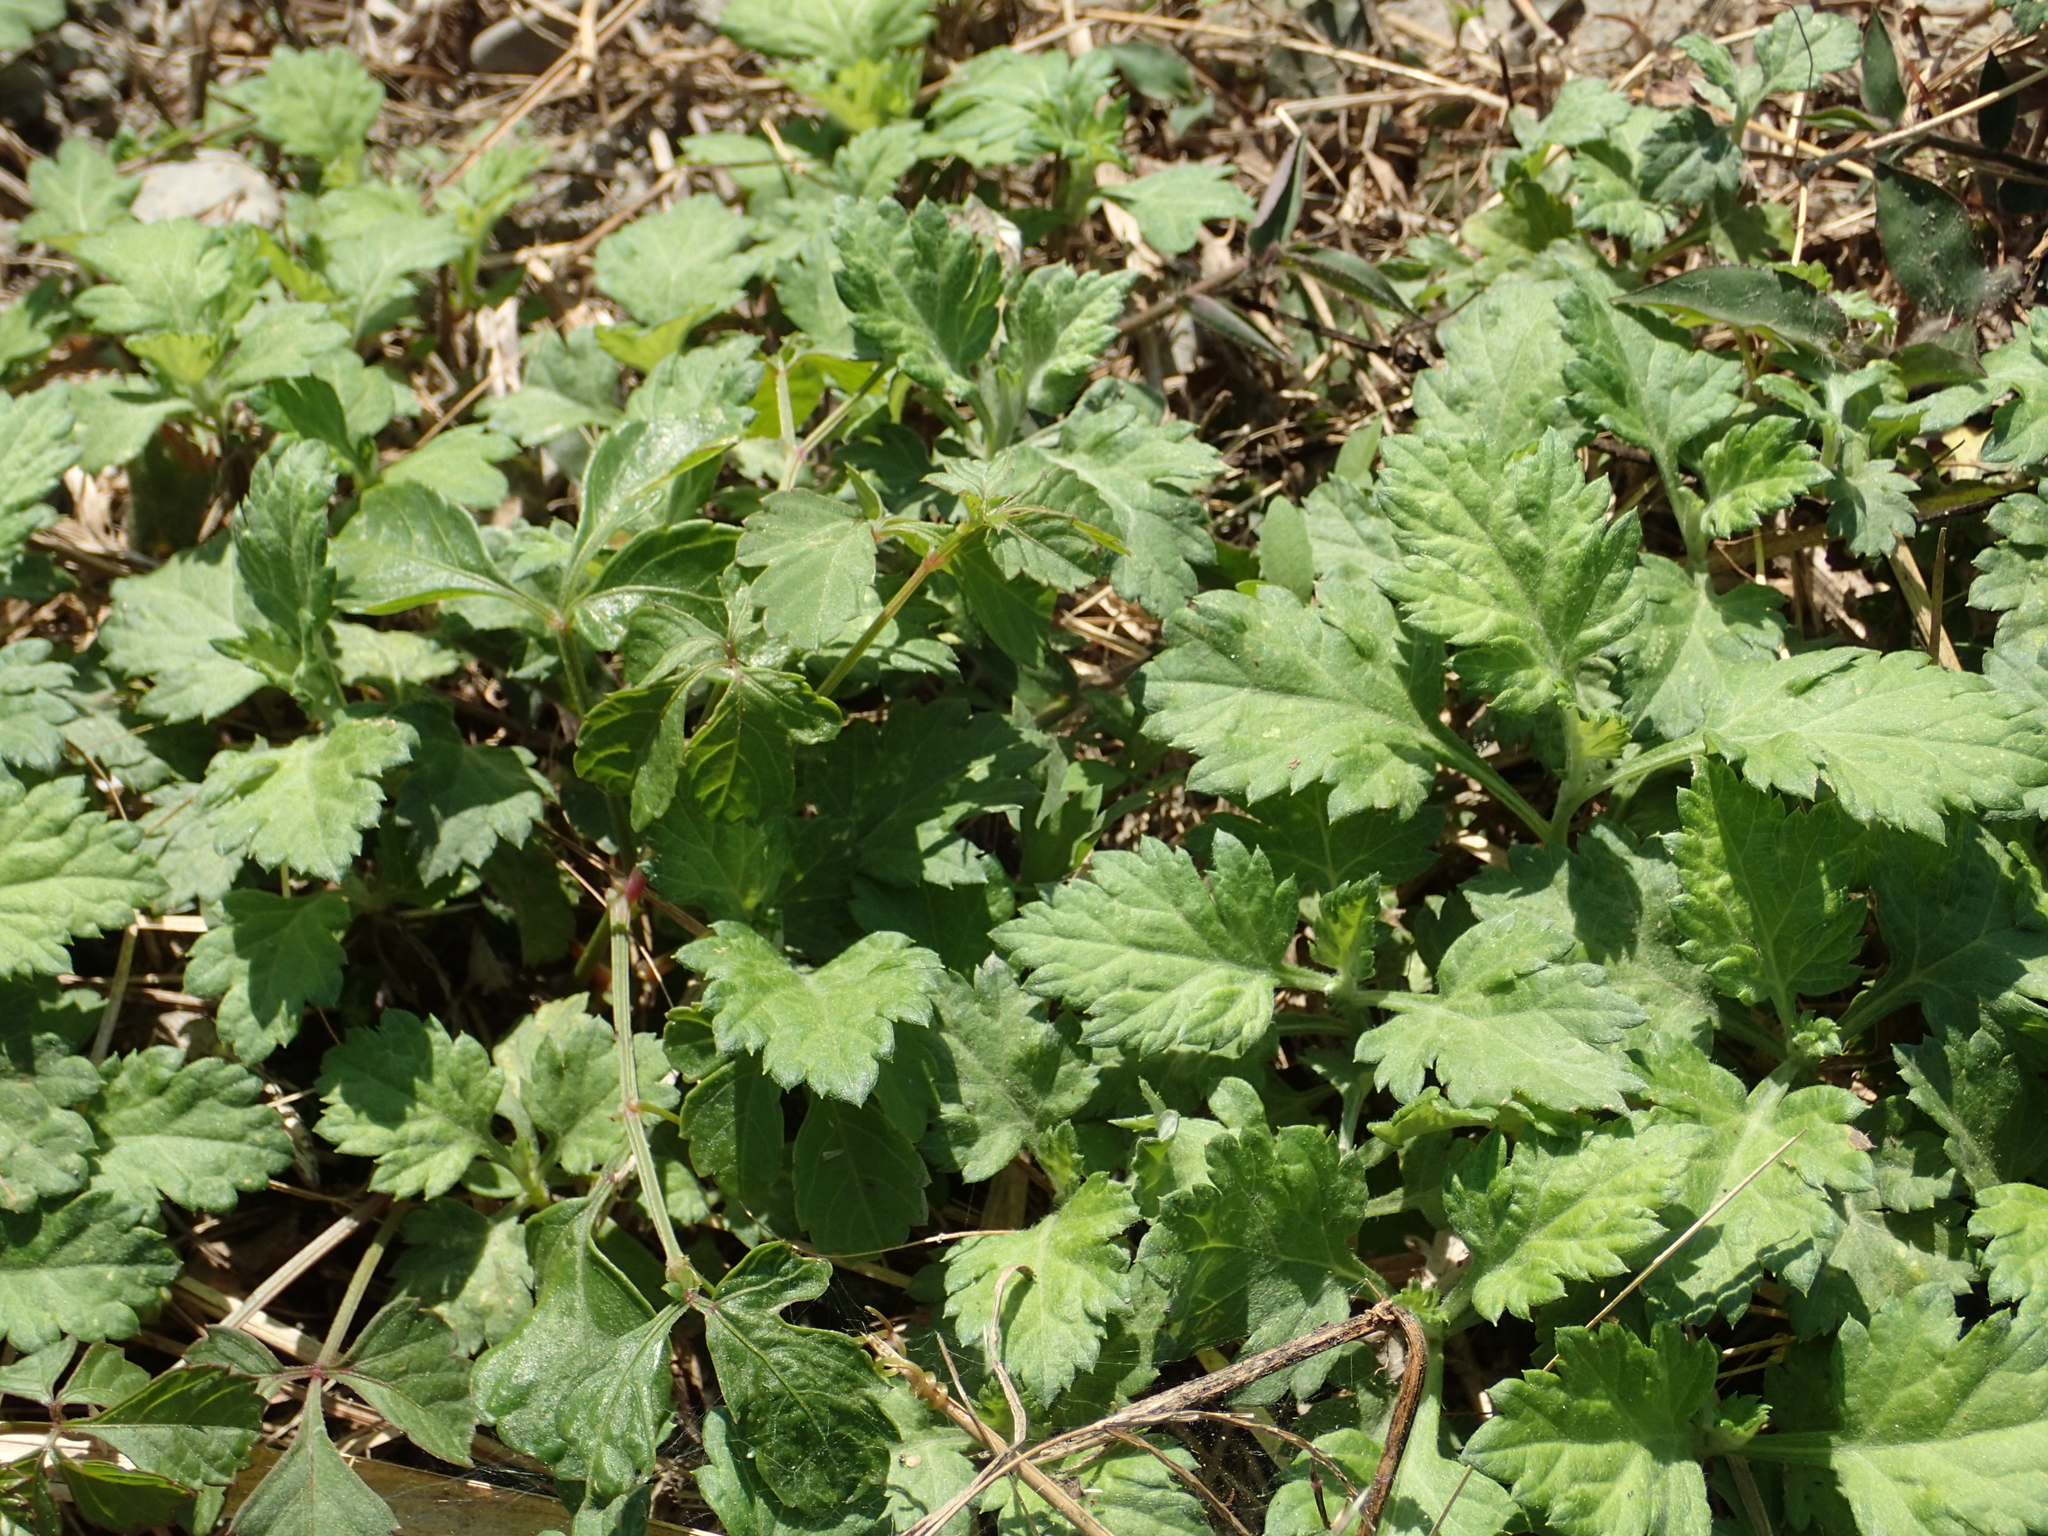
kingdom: Plantae
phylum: Tracheophyta
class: Magnoliopsida
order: Asterales
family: Asteraceae
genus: Artemisia
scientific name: Artemisia indica
